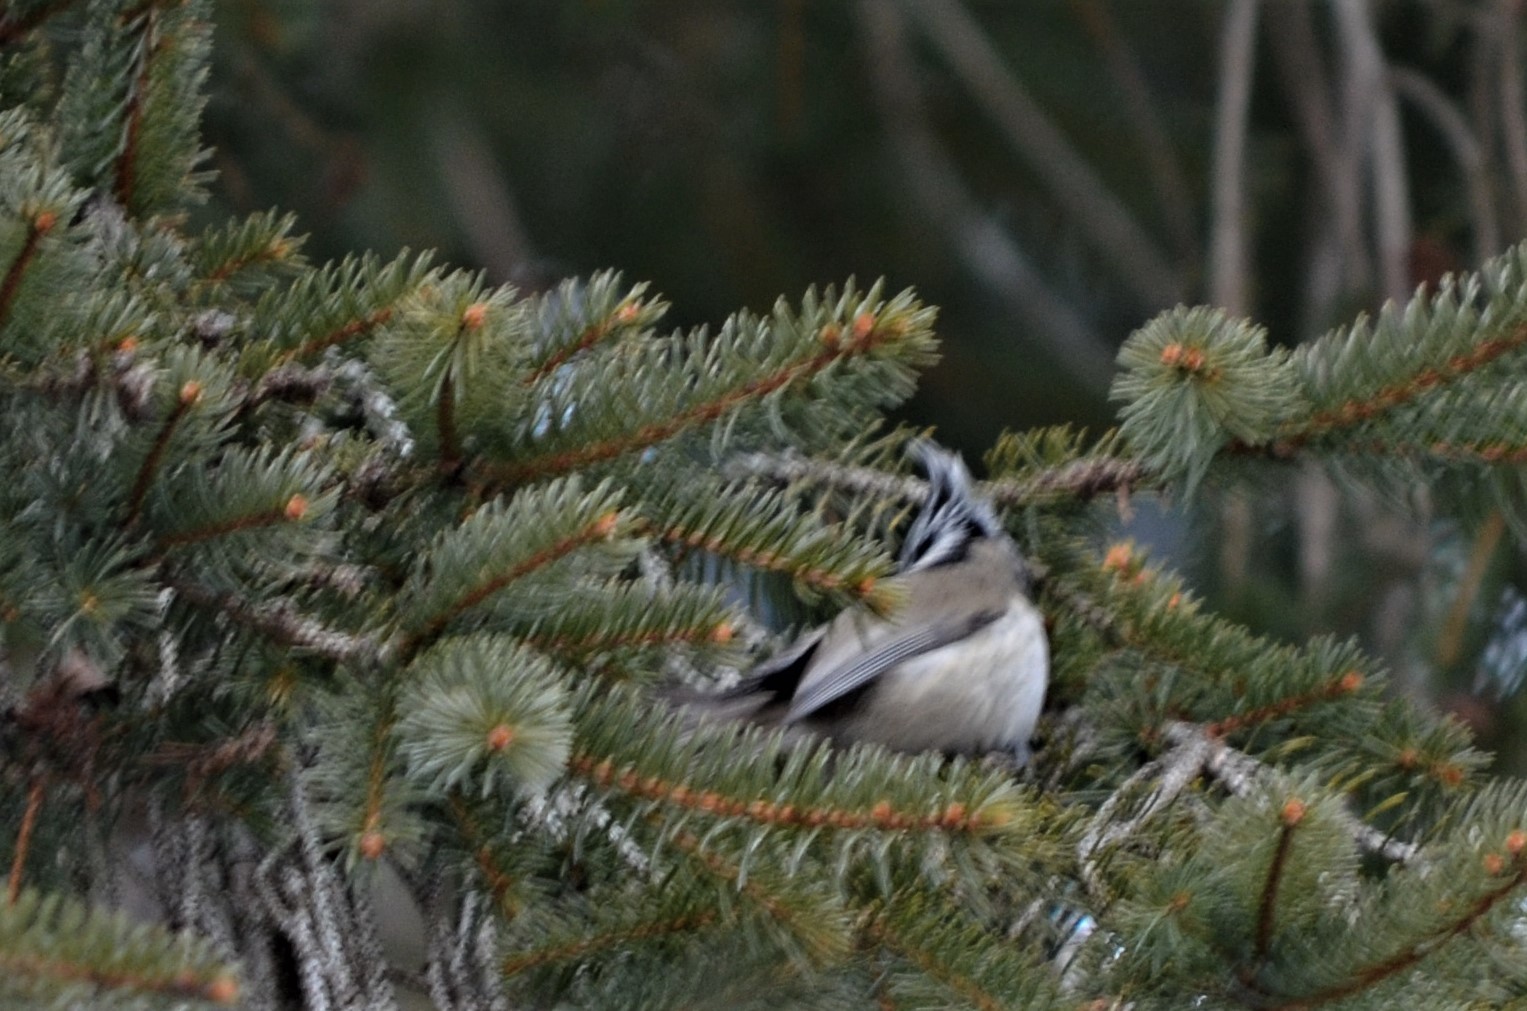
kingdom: Animalia
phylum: Chordata
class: Aves
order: Passeriformes
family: Paridae
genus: Lophophanes
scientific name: Lophophanes cristatus
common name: European crested tit
